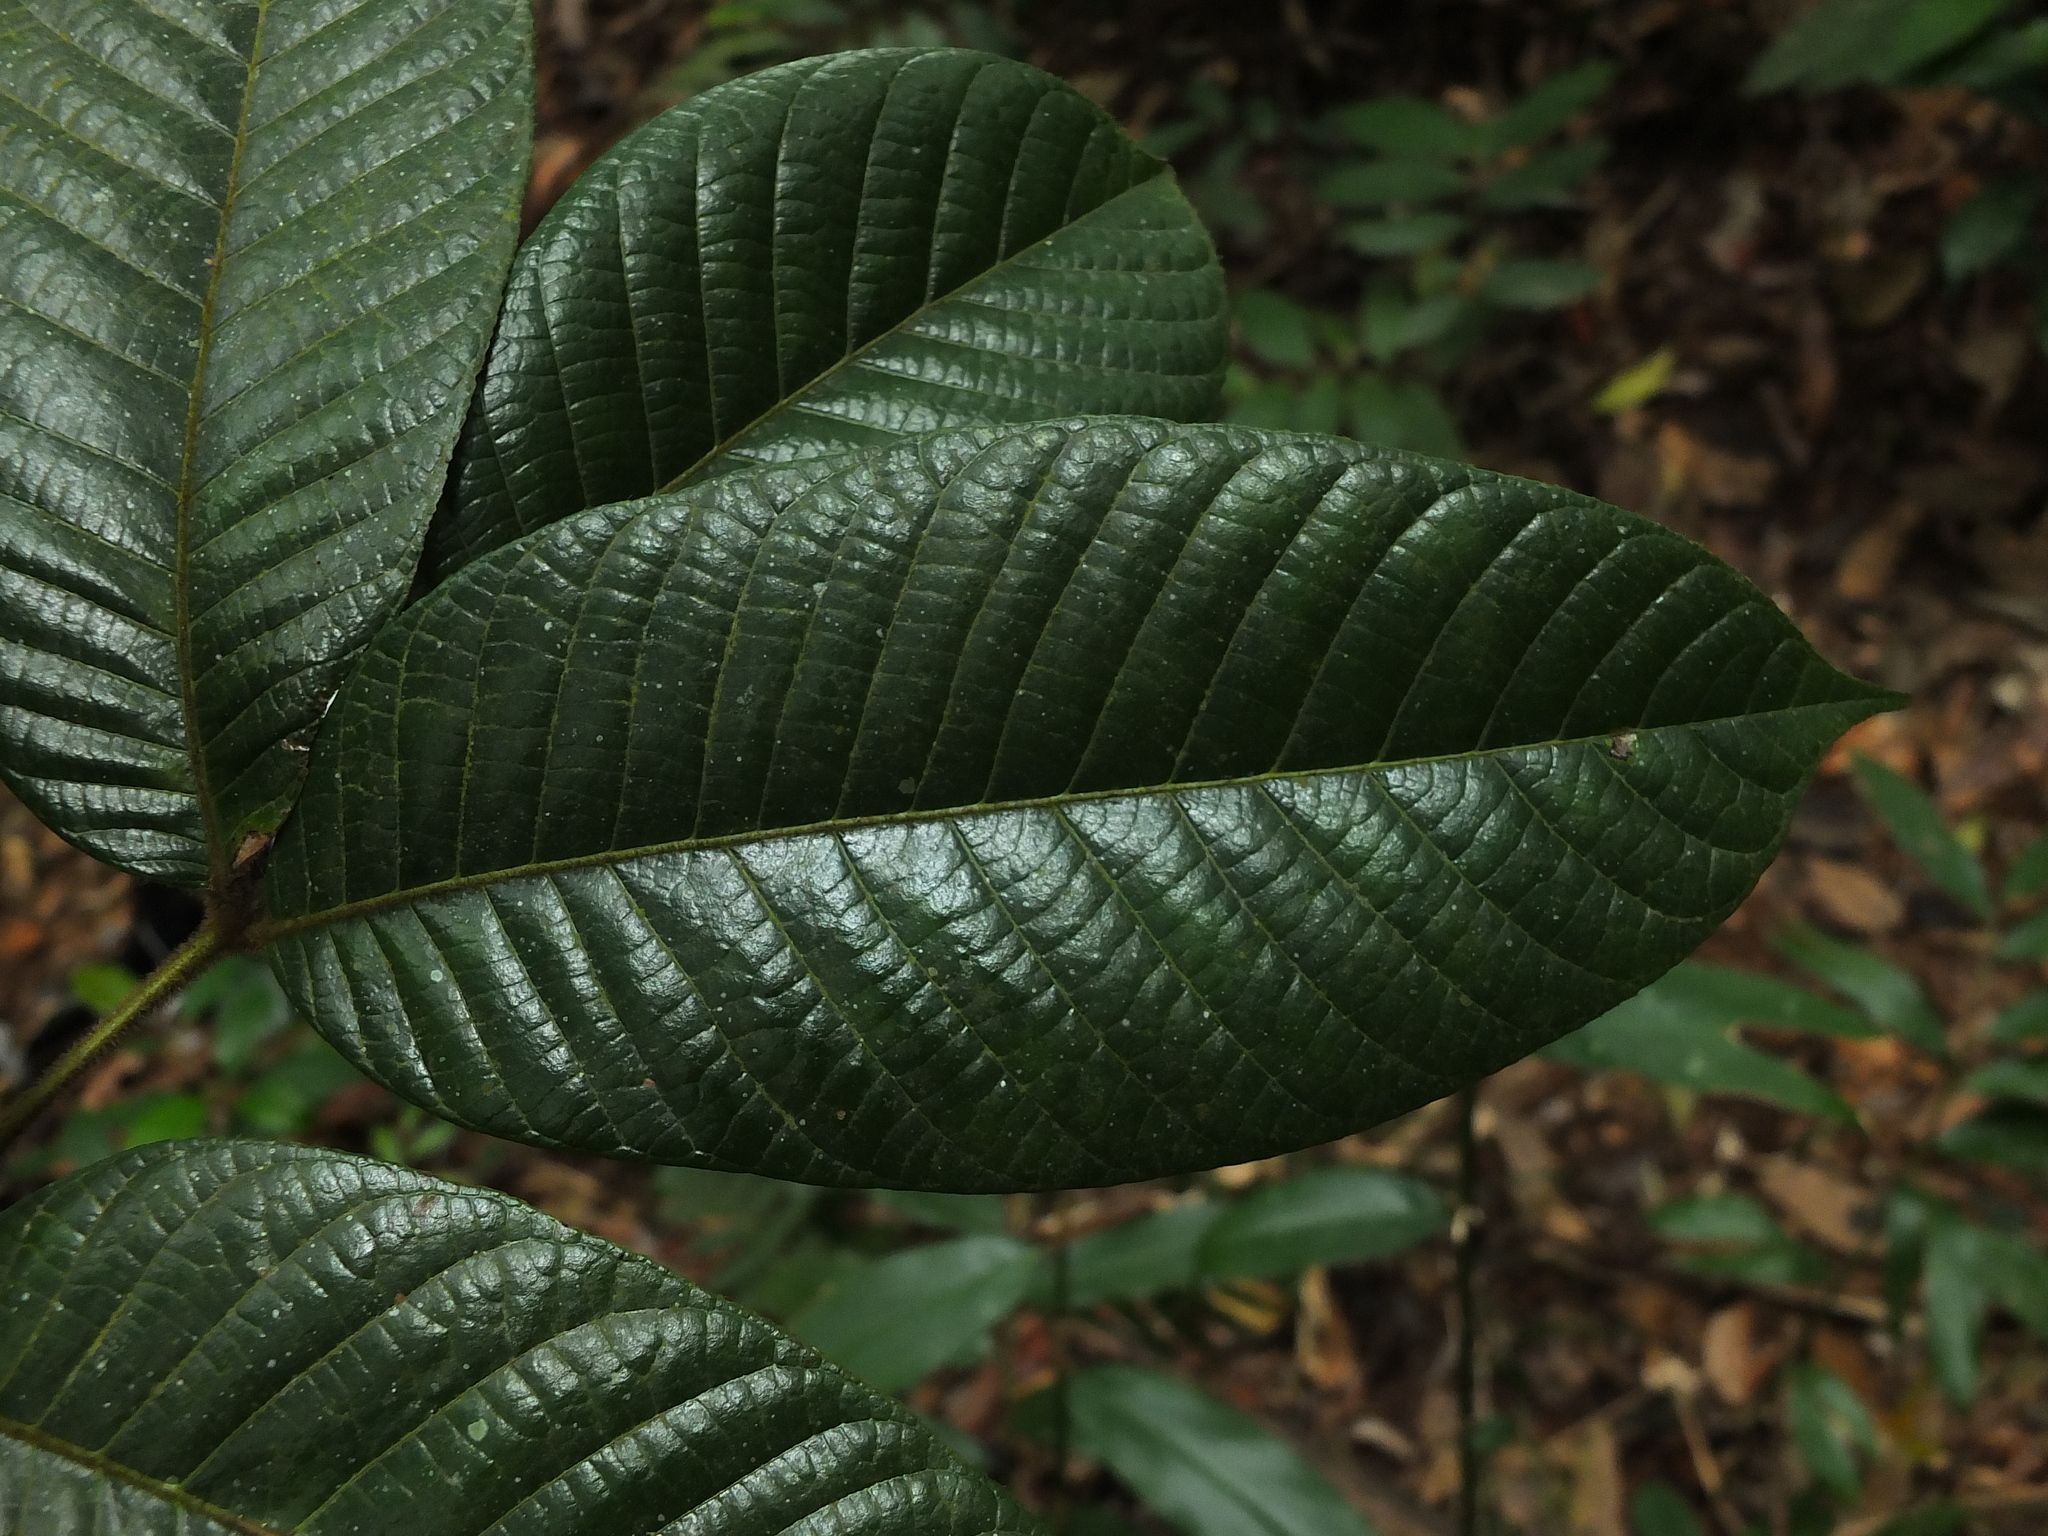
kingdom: Plantae
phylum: Tracheophyta
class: Magnoliopsida
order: Sapindales
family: Burseraceae
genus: Canarium
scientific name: Canarium strictum
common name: Indian white-mahogany
